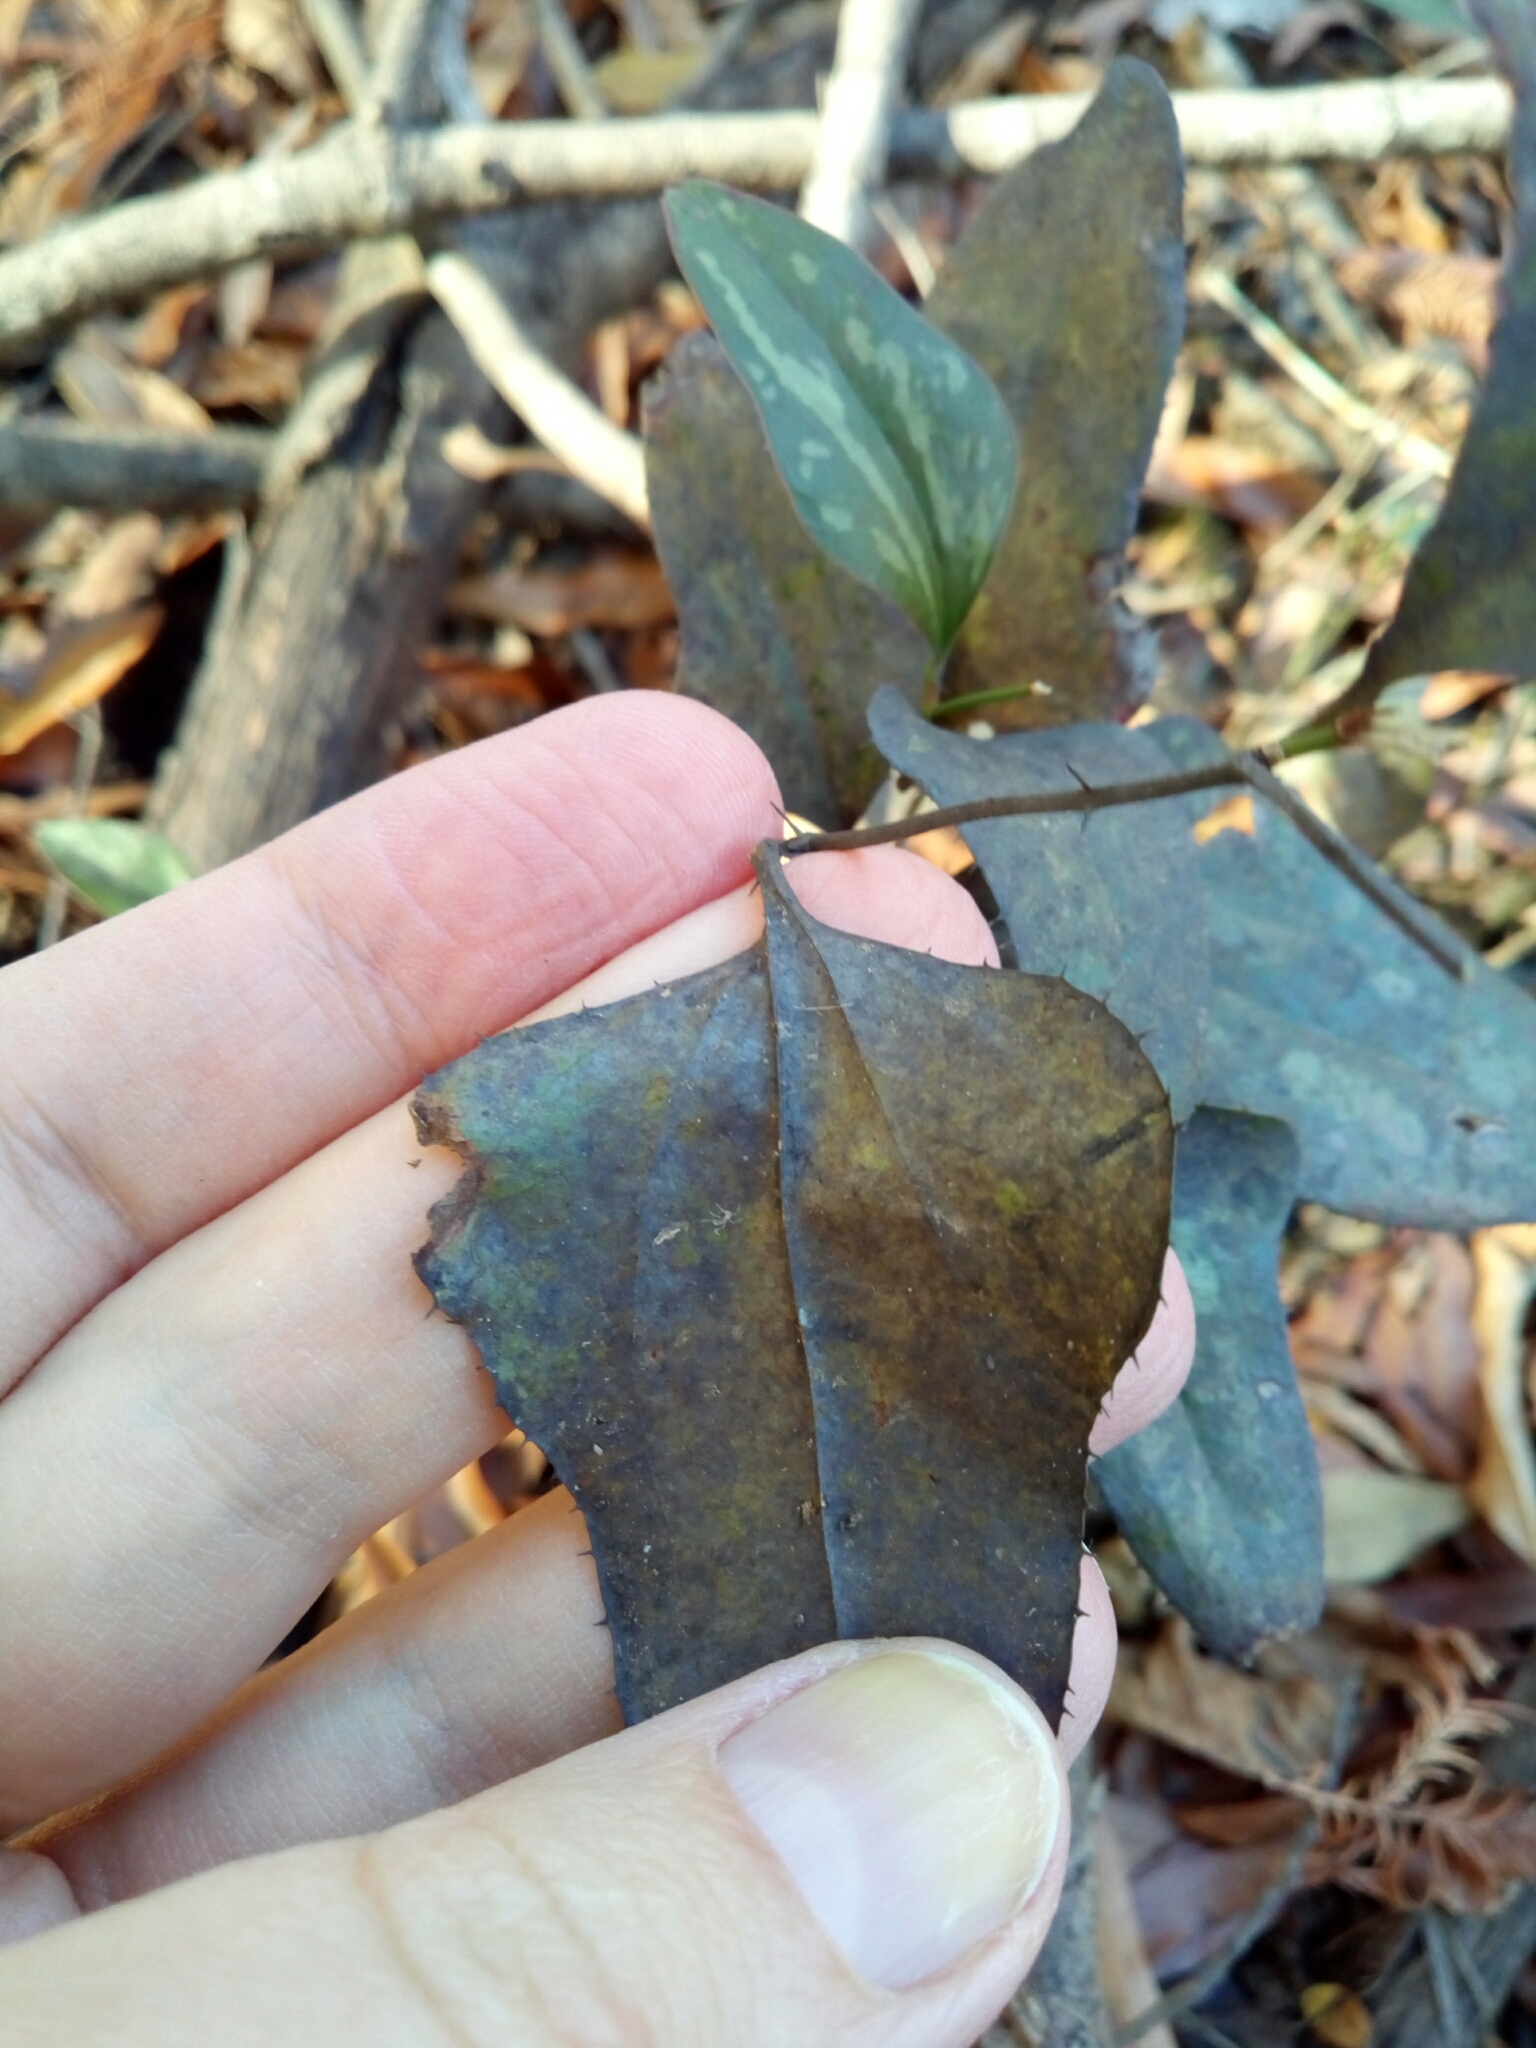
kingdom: Plantae
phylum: Tracheophyta
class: Liliopsida
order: Liliales
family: Smilacaceae
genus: Smilax
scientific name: Smilax bona-nox
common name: Catbrier
